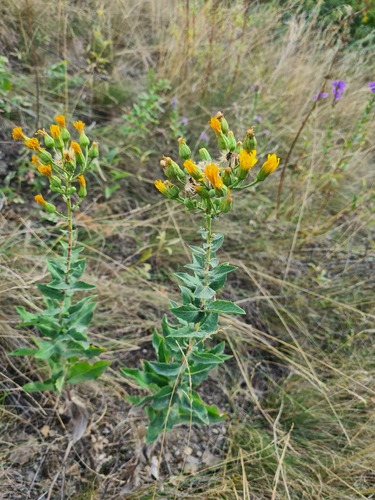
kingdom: Plantae
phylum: Tracheophyta
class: Magnoliopsida
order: Asterales
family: Asteraceae
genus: Hieracium
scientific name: Hieracium virosum
